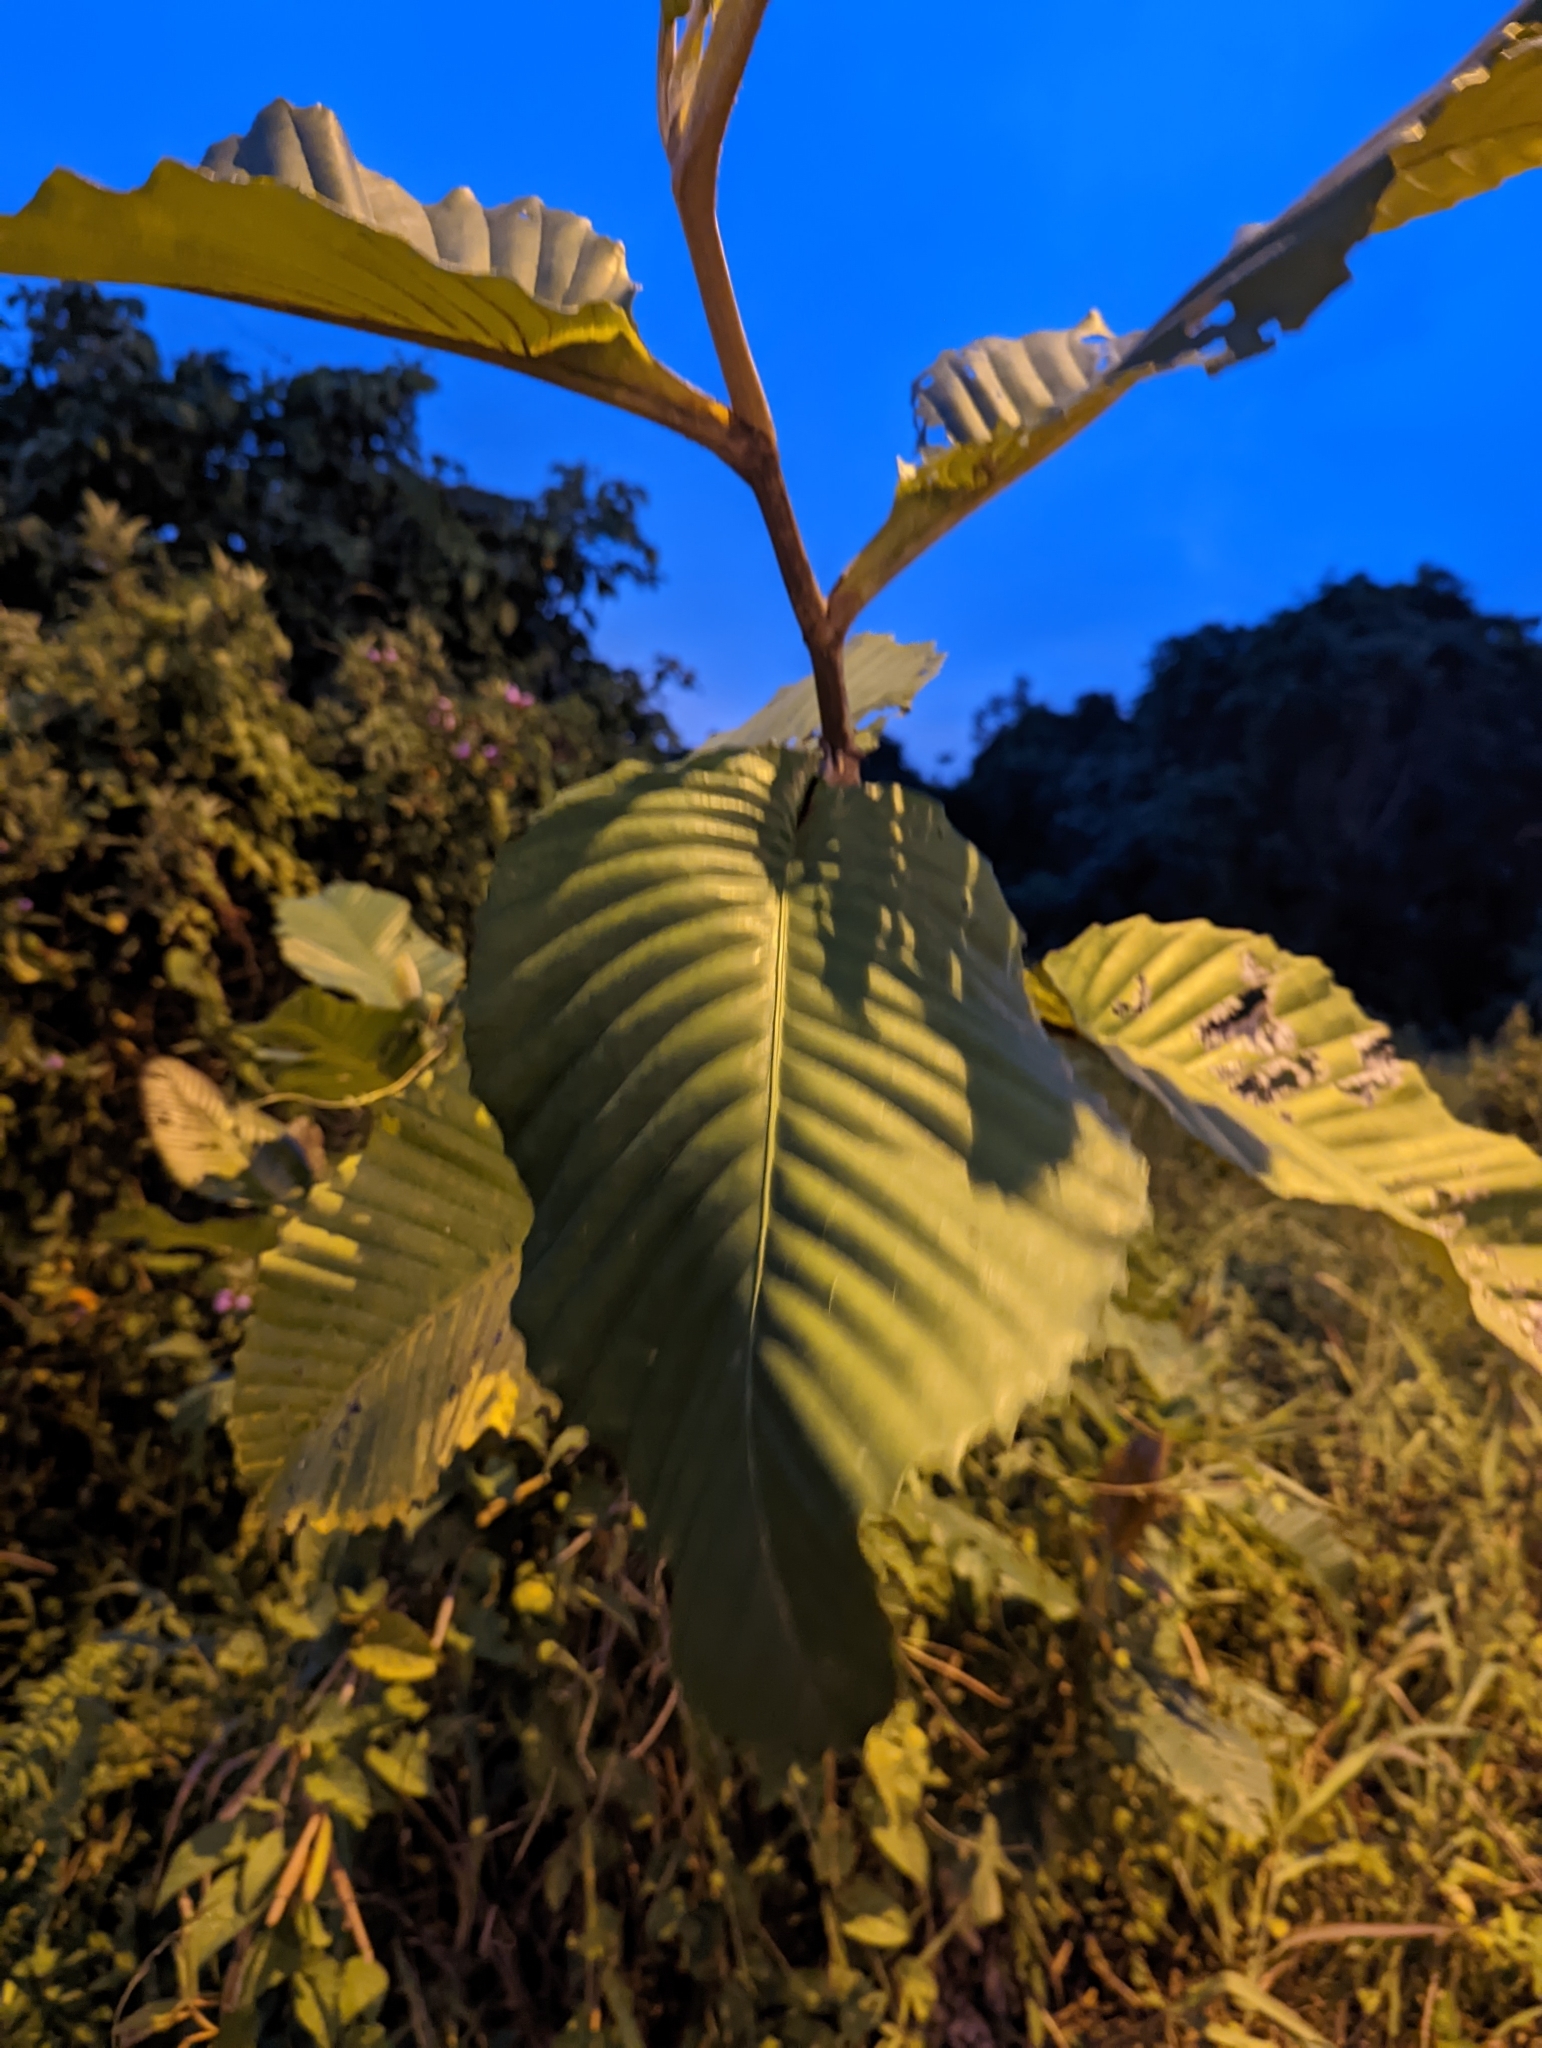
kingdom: Plantae
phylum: Tracheophyta
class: Magnoliopsida
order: Dilleniales
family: Dilleniaceae
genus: Dillenia
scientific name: Dillenia suffruticosa
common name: Shrubby dillenia
